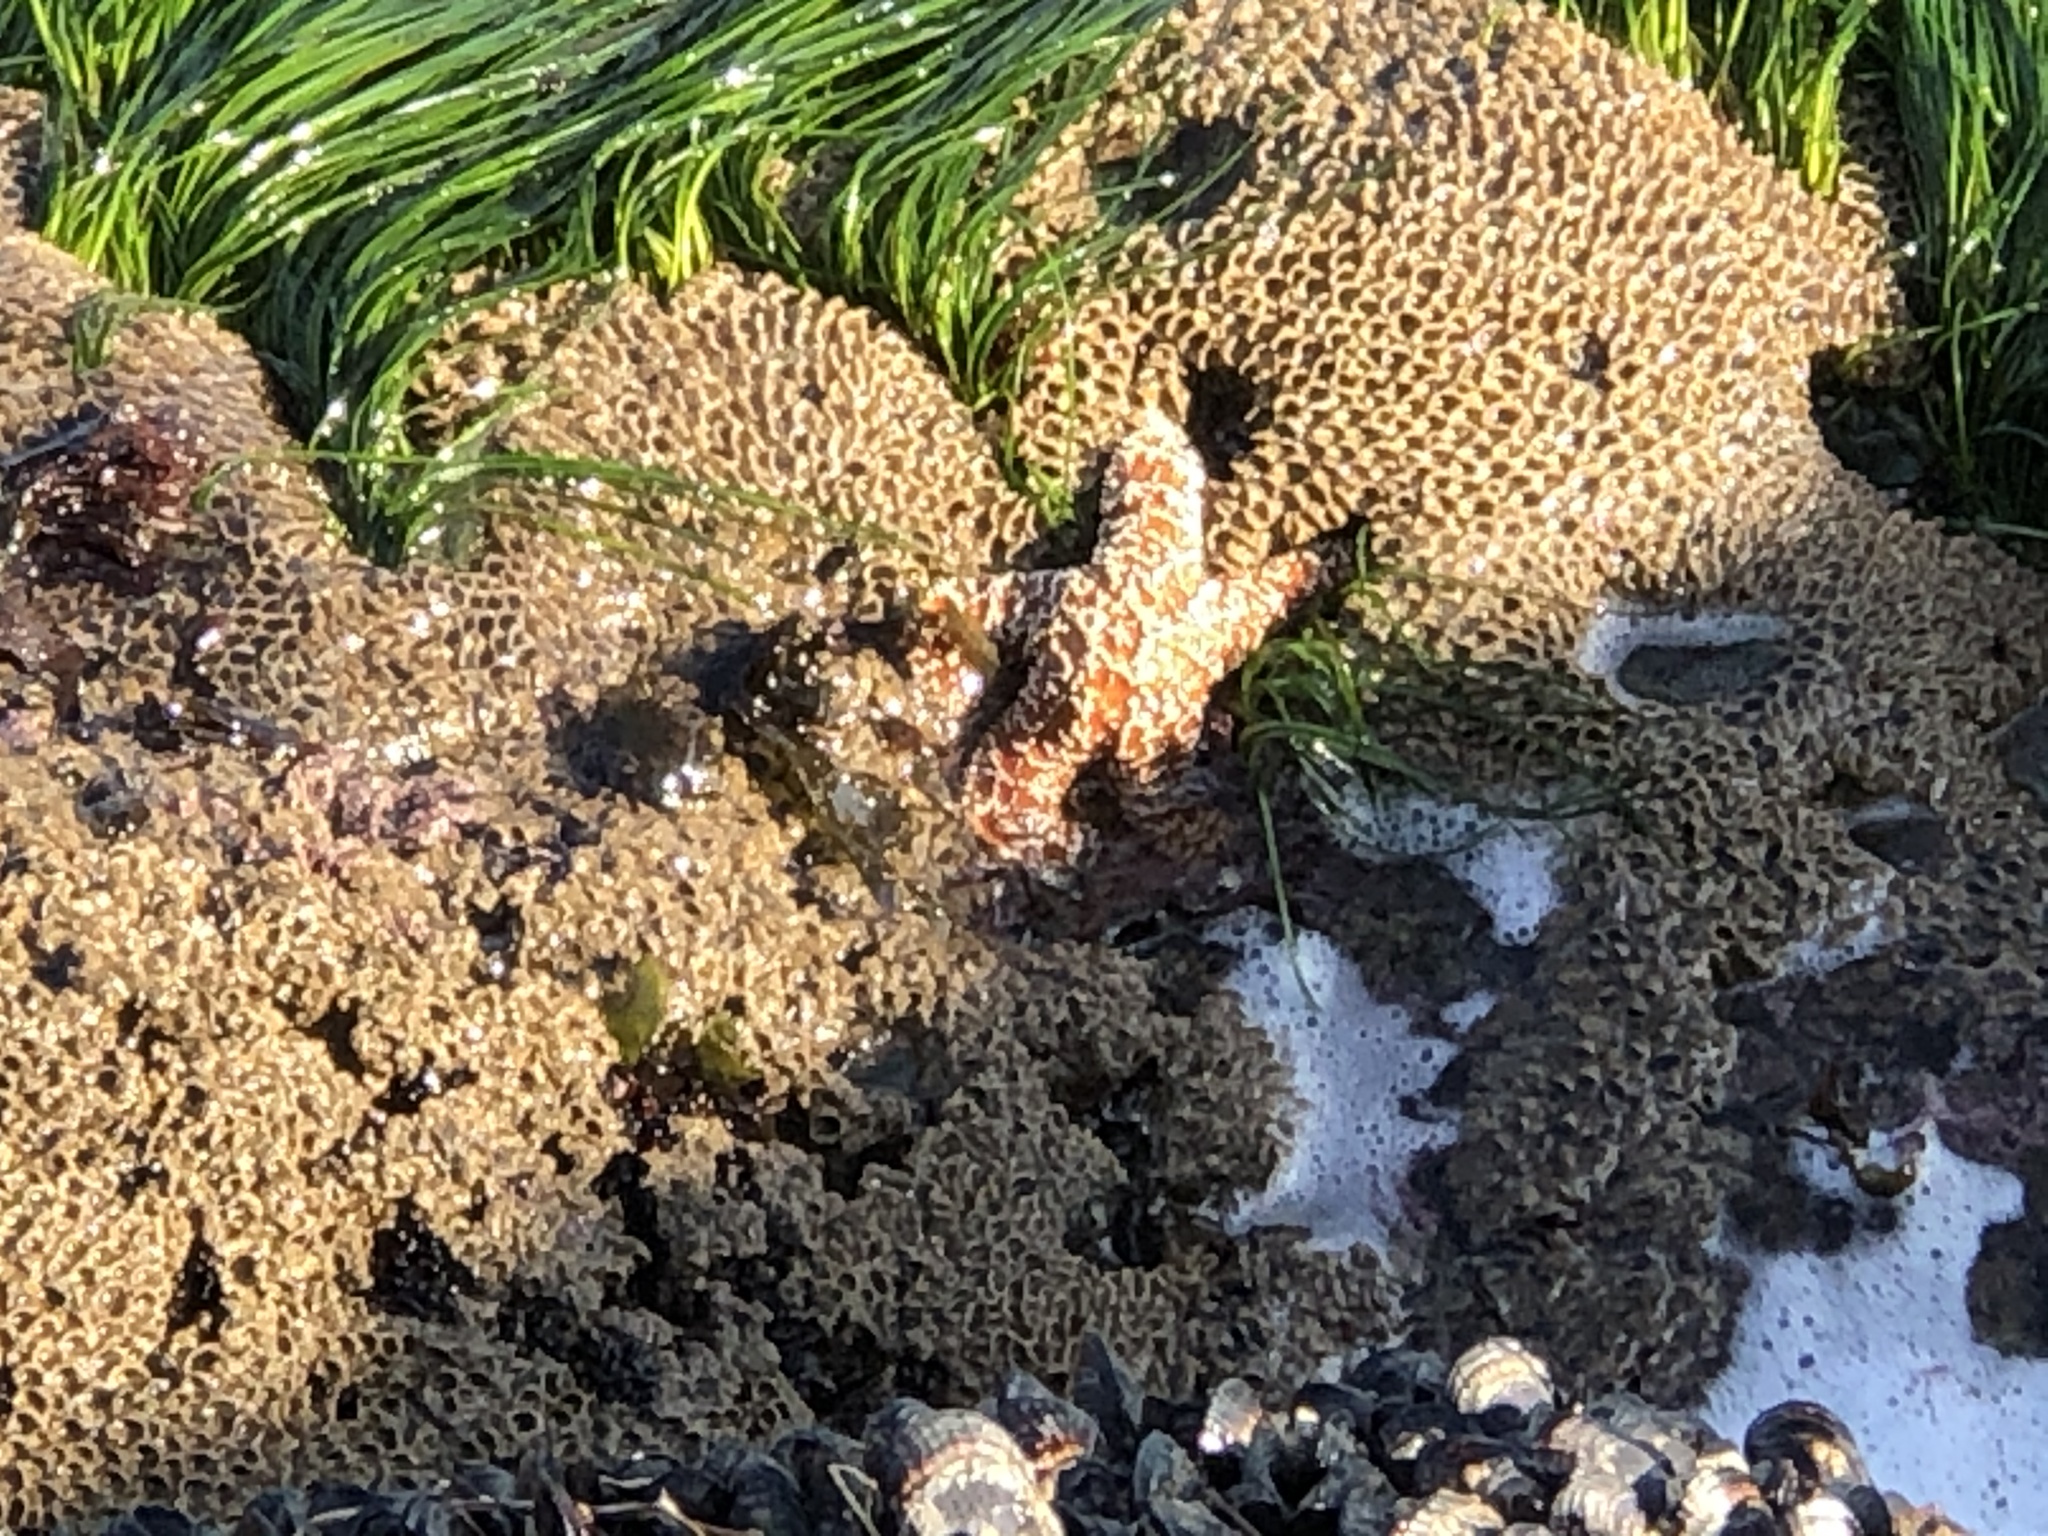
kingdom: Animalia
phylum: Echinodermata
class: Asteroidea
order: Forcipulatida
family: Asteriidae
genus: Pisaster
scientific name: Pisaster ochraceus
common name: Ochre stars
